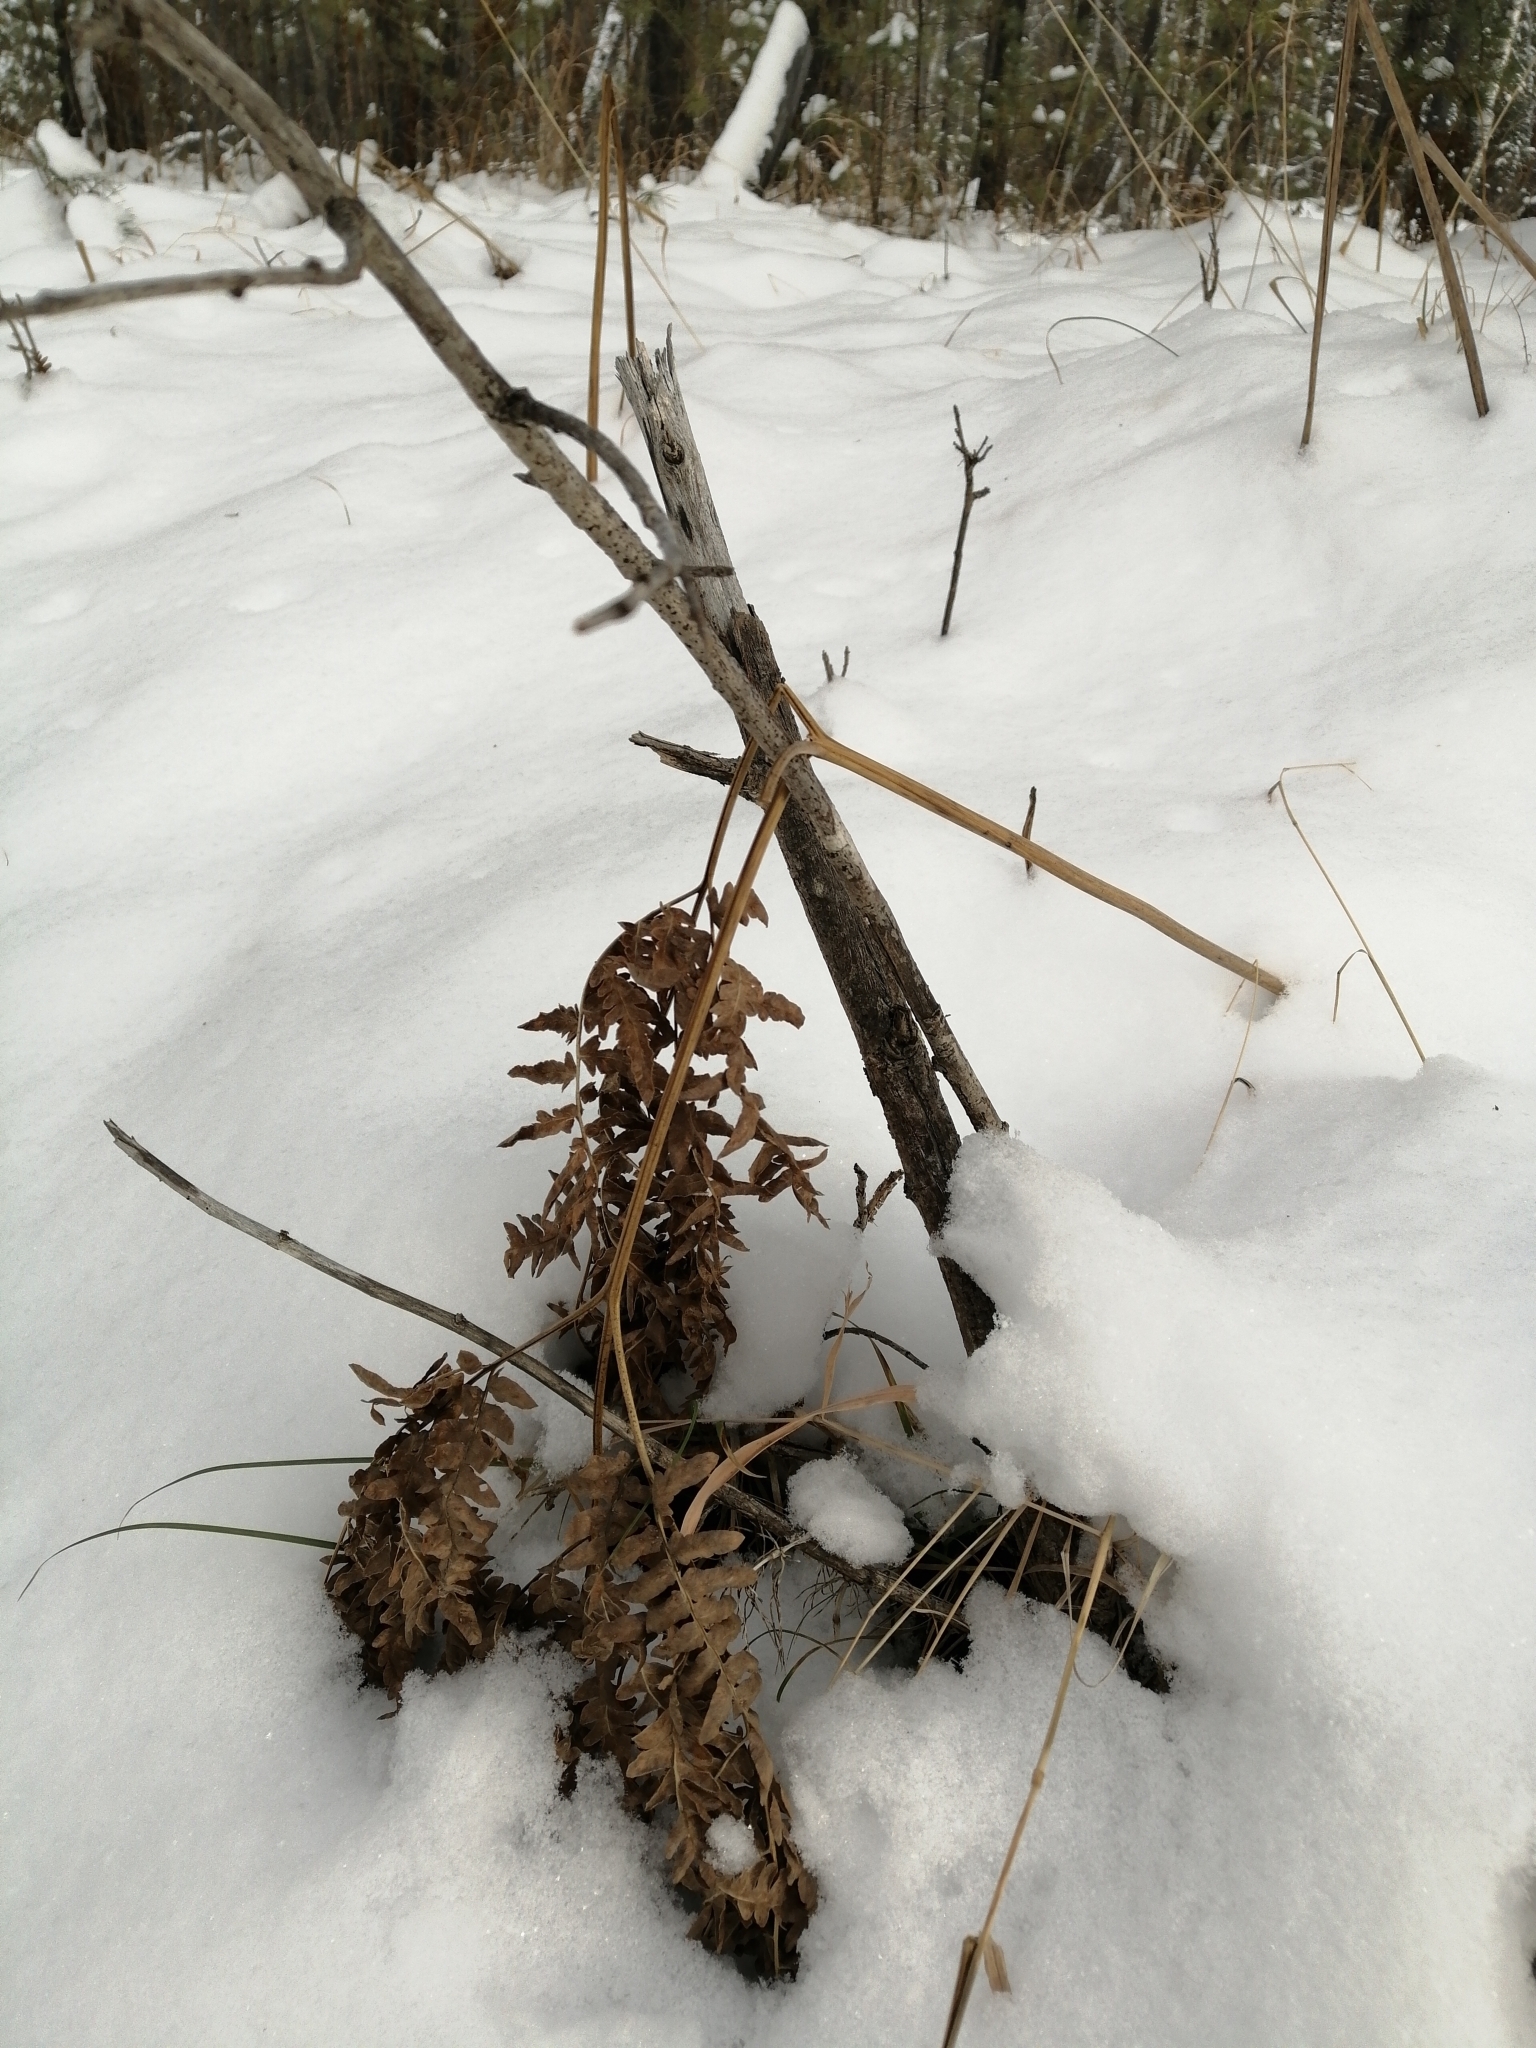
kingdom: Plantae
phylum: Tracheophyta
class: Polypodiopsida
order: Polypodiales
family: Dennstaedtiaceae
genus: Pteridium
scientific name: Pteridium aquilinum
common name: Bracken
